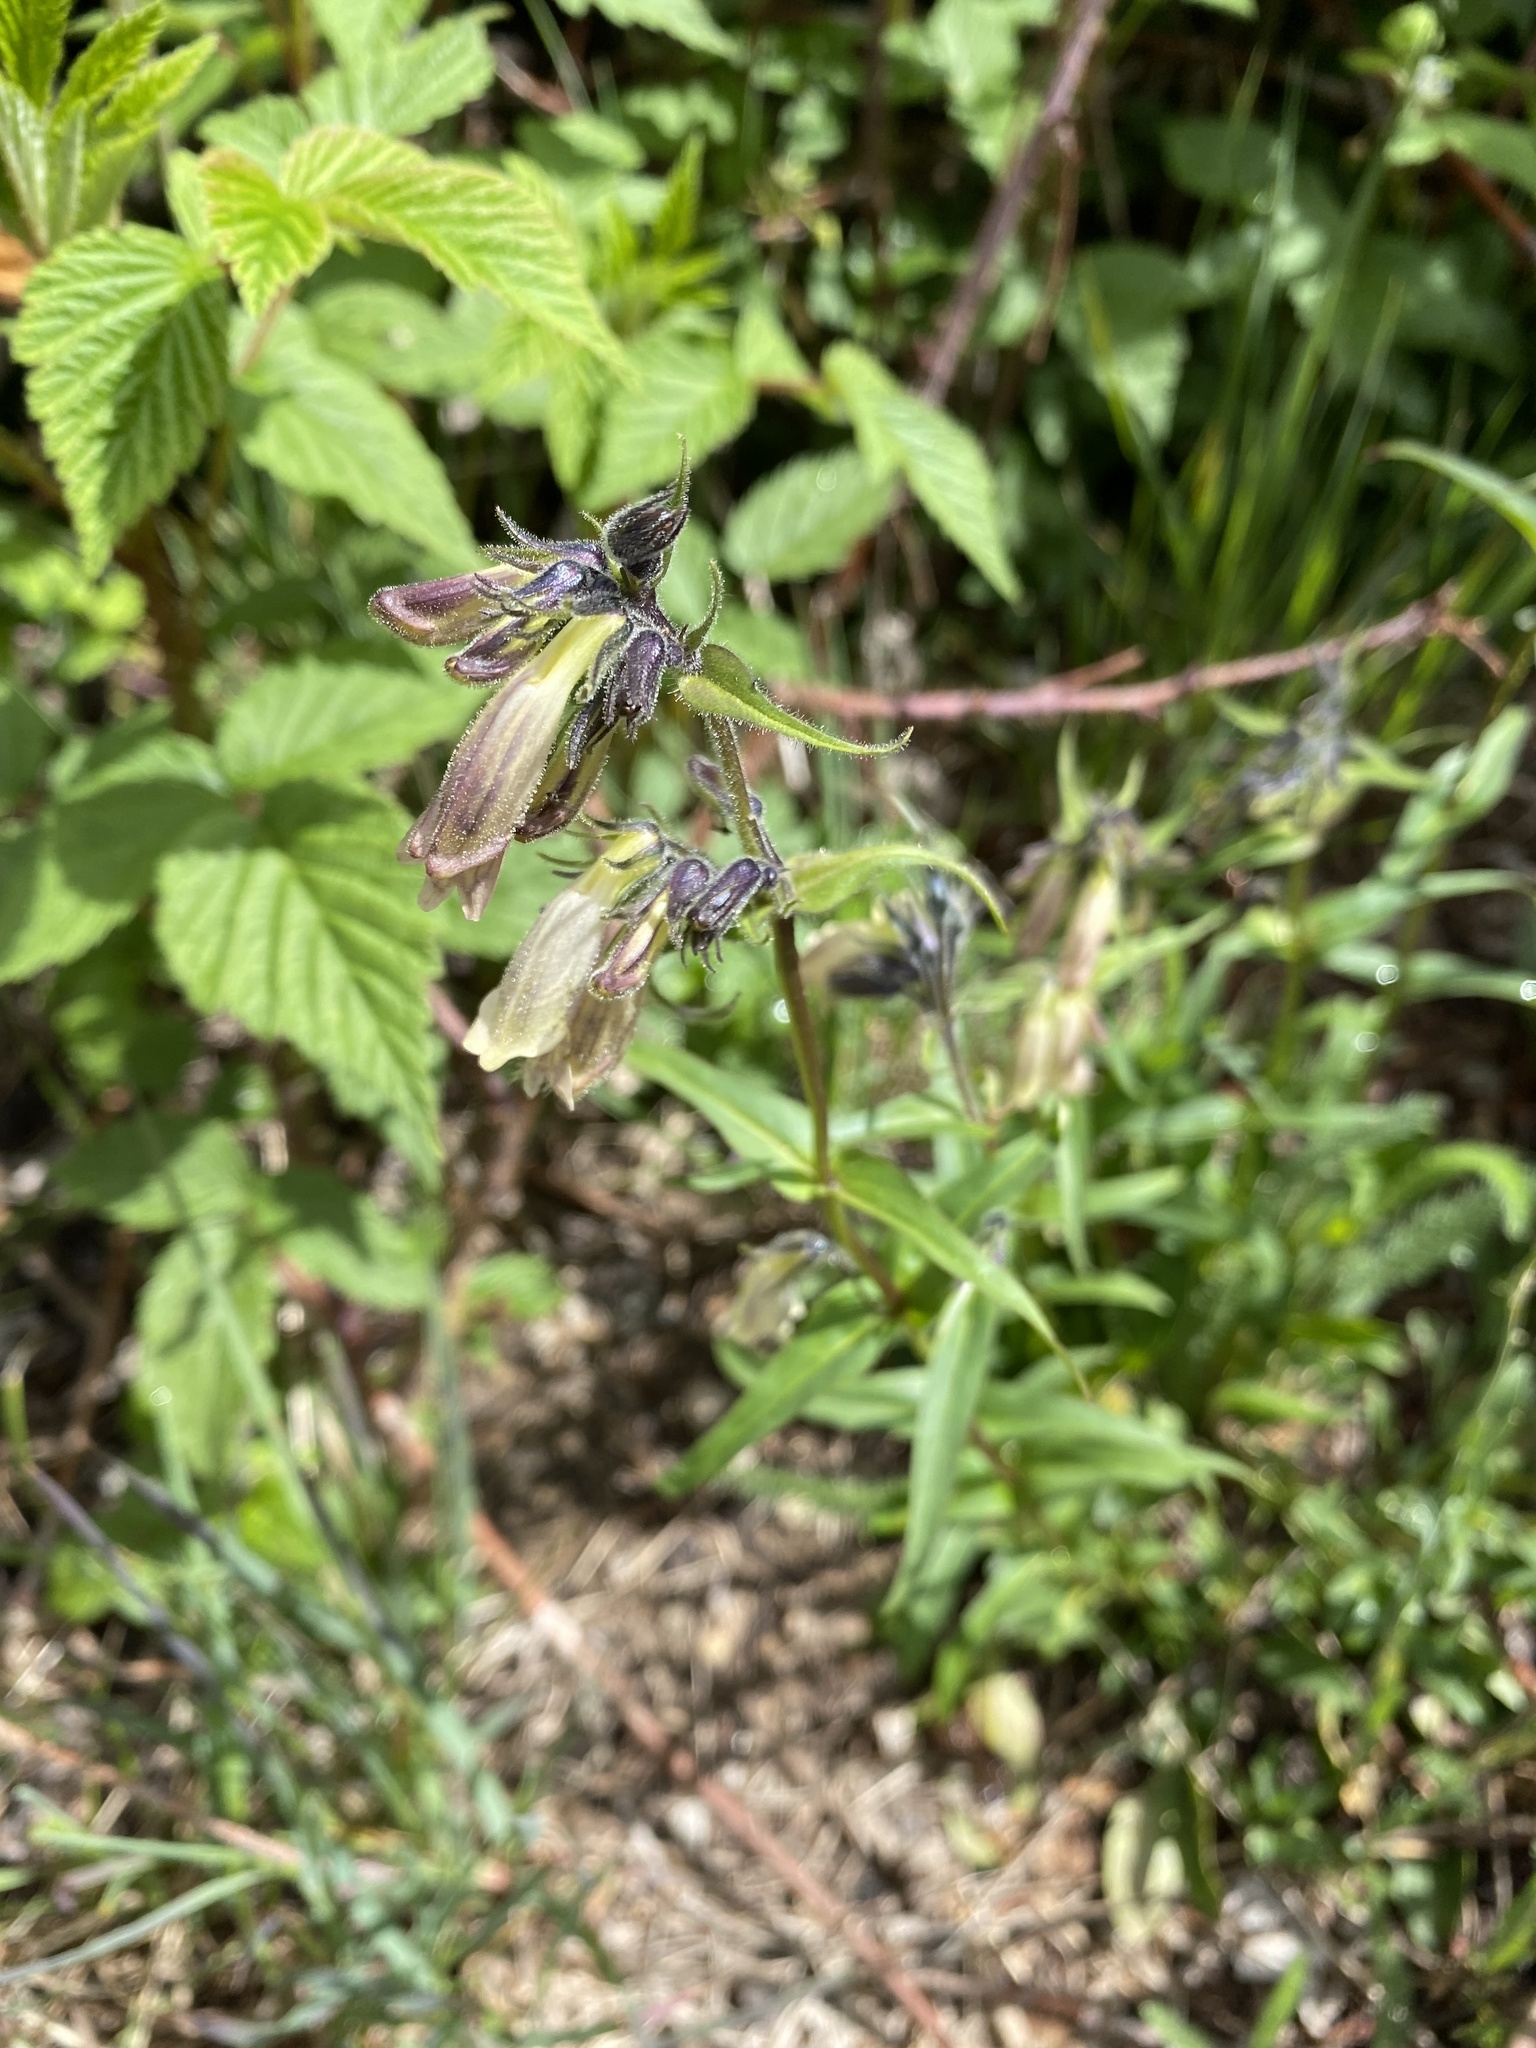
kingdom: Plantae
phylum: Tracheophyta
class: Magnoliopsida
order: Lamiales
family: Plantaginaceae
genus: Penstemon
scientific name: Penstemon whippleanus
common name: Whipple's penstemon
